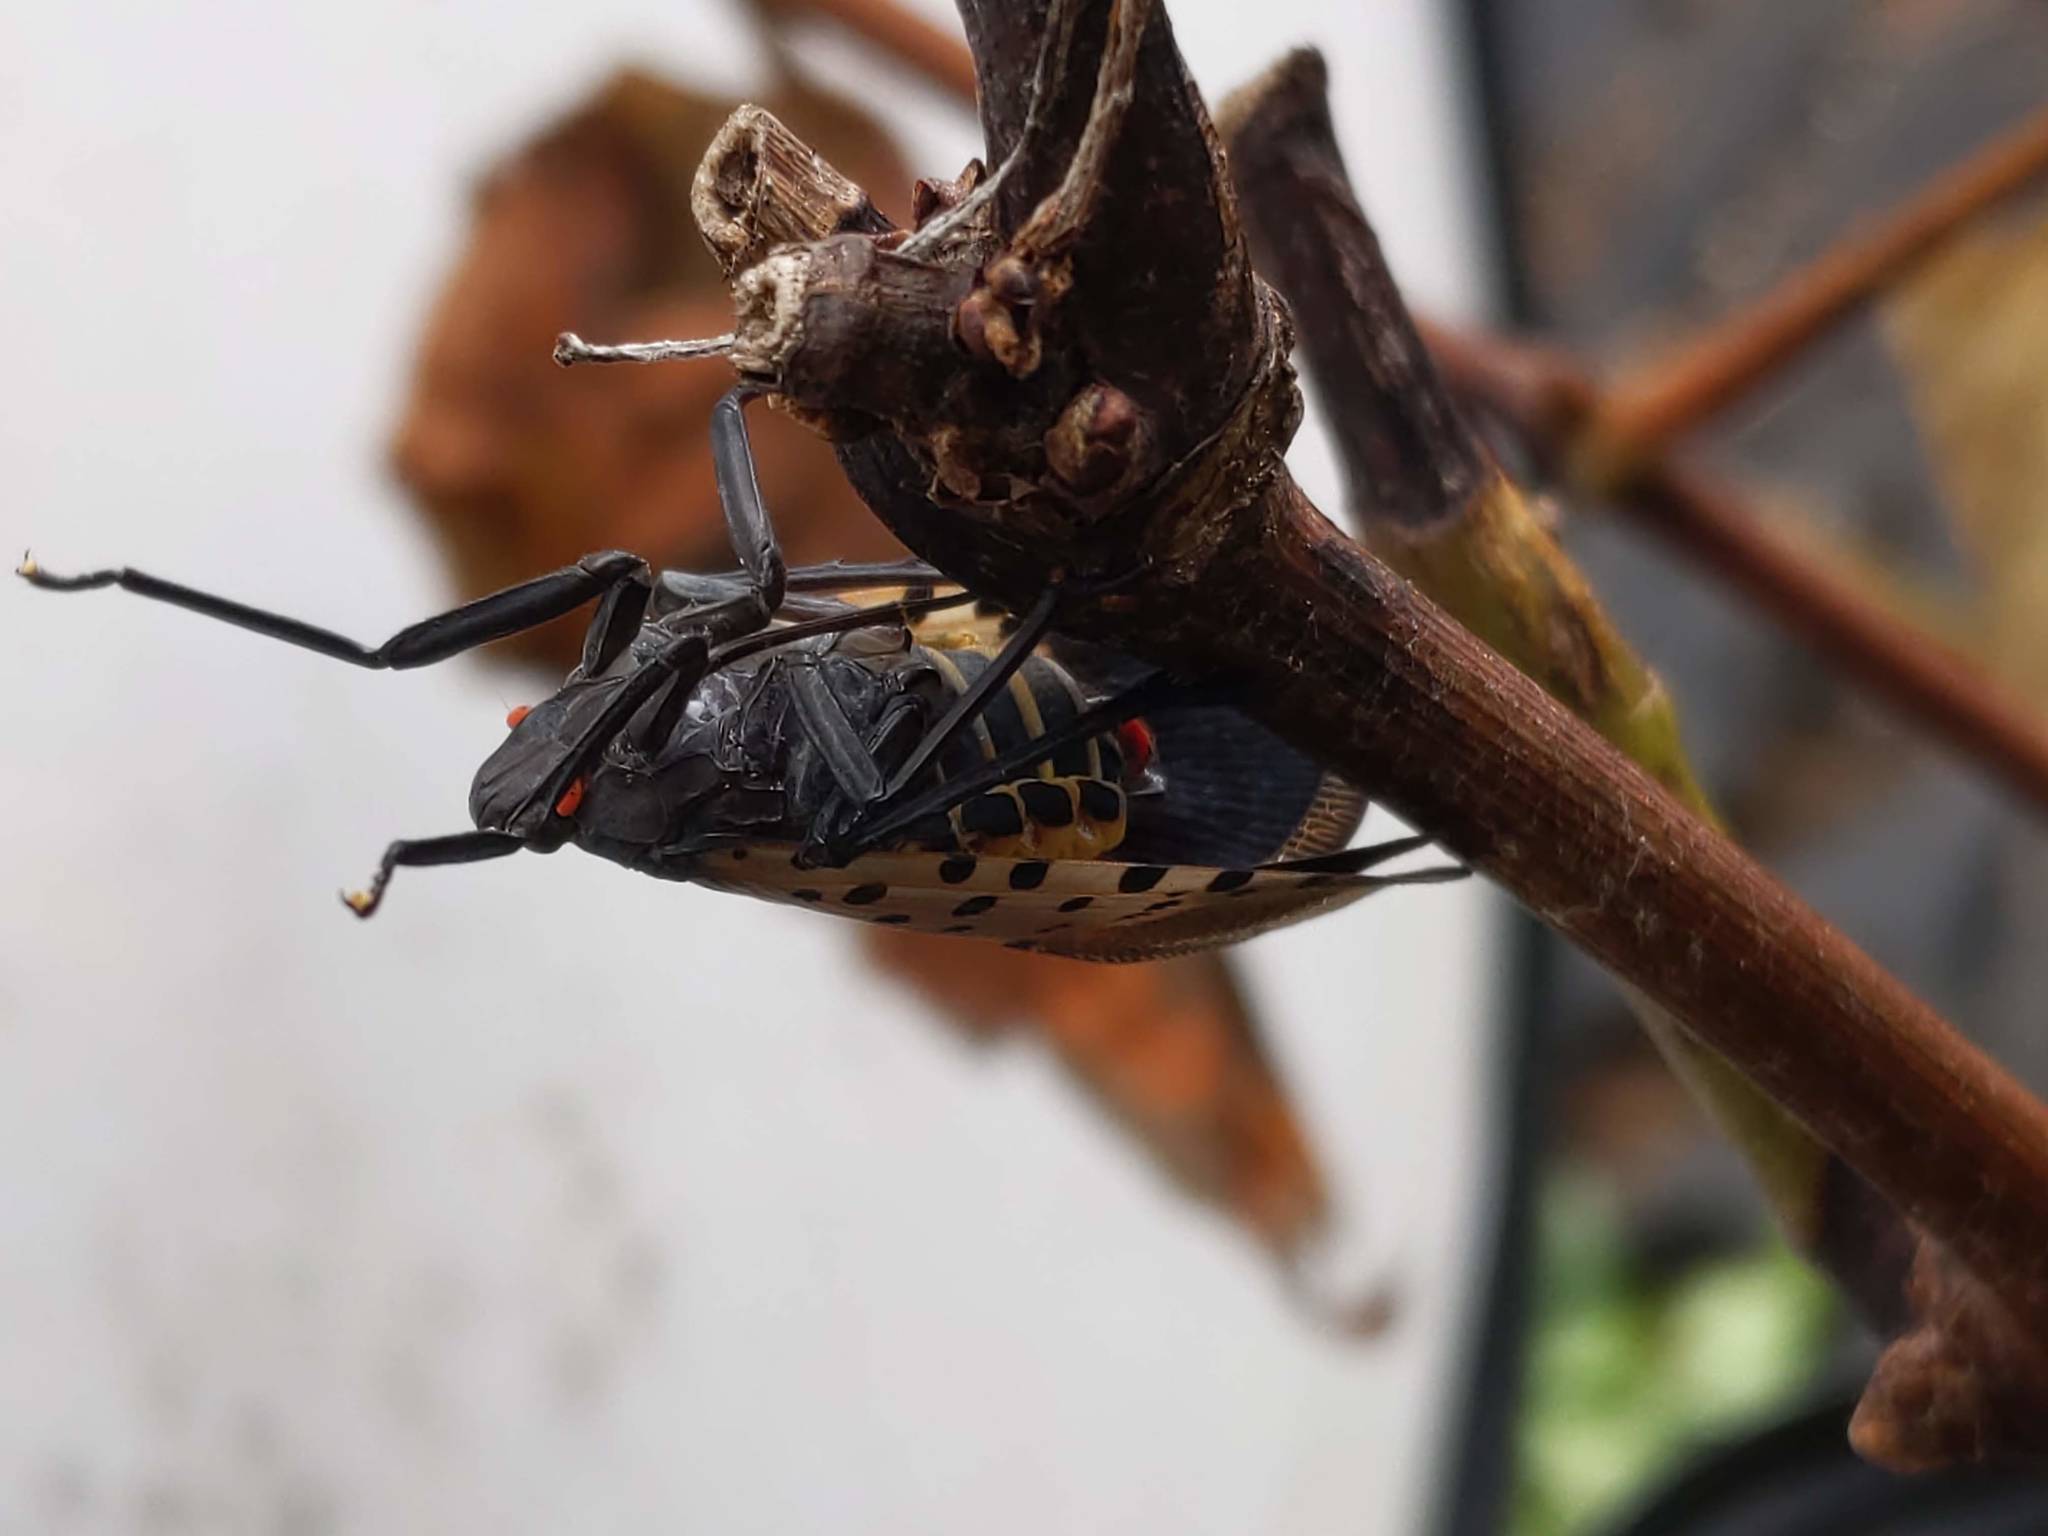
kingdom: Animalia
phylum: Arthropoda
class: Insecta
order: Hemiptera
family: Fulgoridae
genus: Lycorma
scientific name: Lycorma delicatula
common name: Spotted lanternfly
